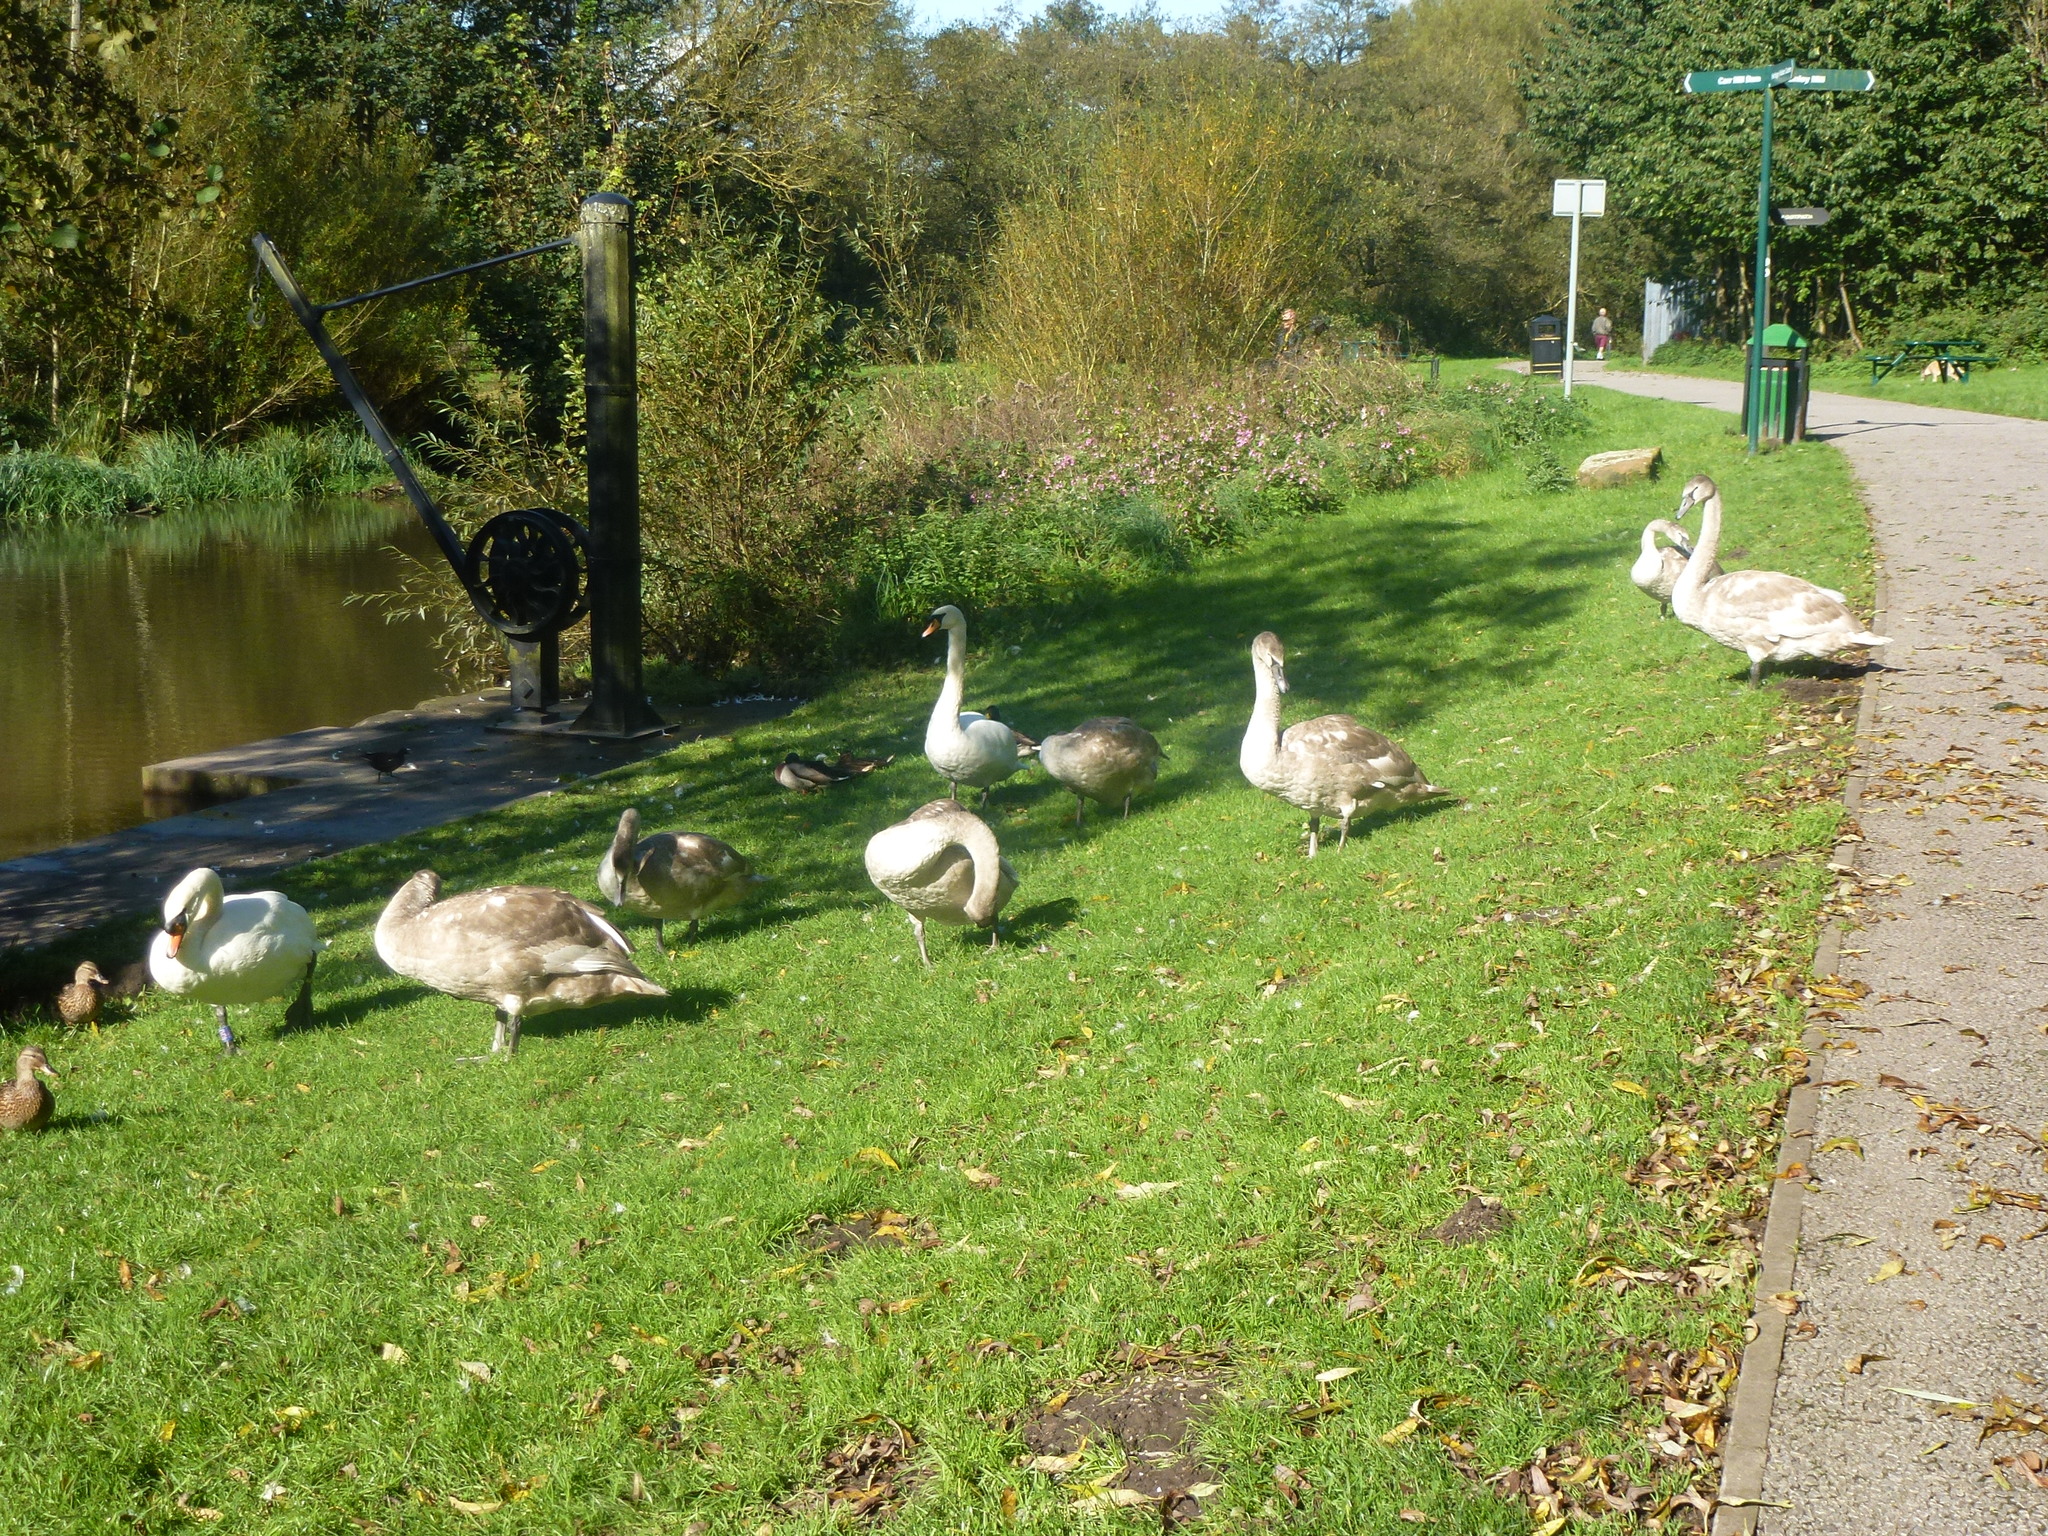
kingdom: Animalia
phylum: Chordata
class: Aves
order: Anseriformes
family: Anatidae
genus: Cygnus
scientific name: Cygnus olor
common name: Mute swan
